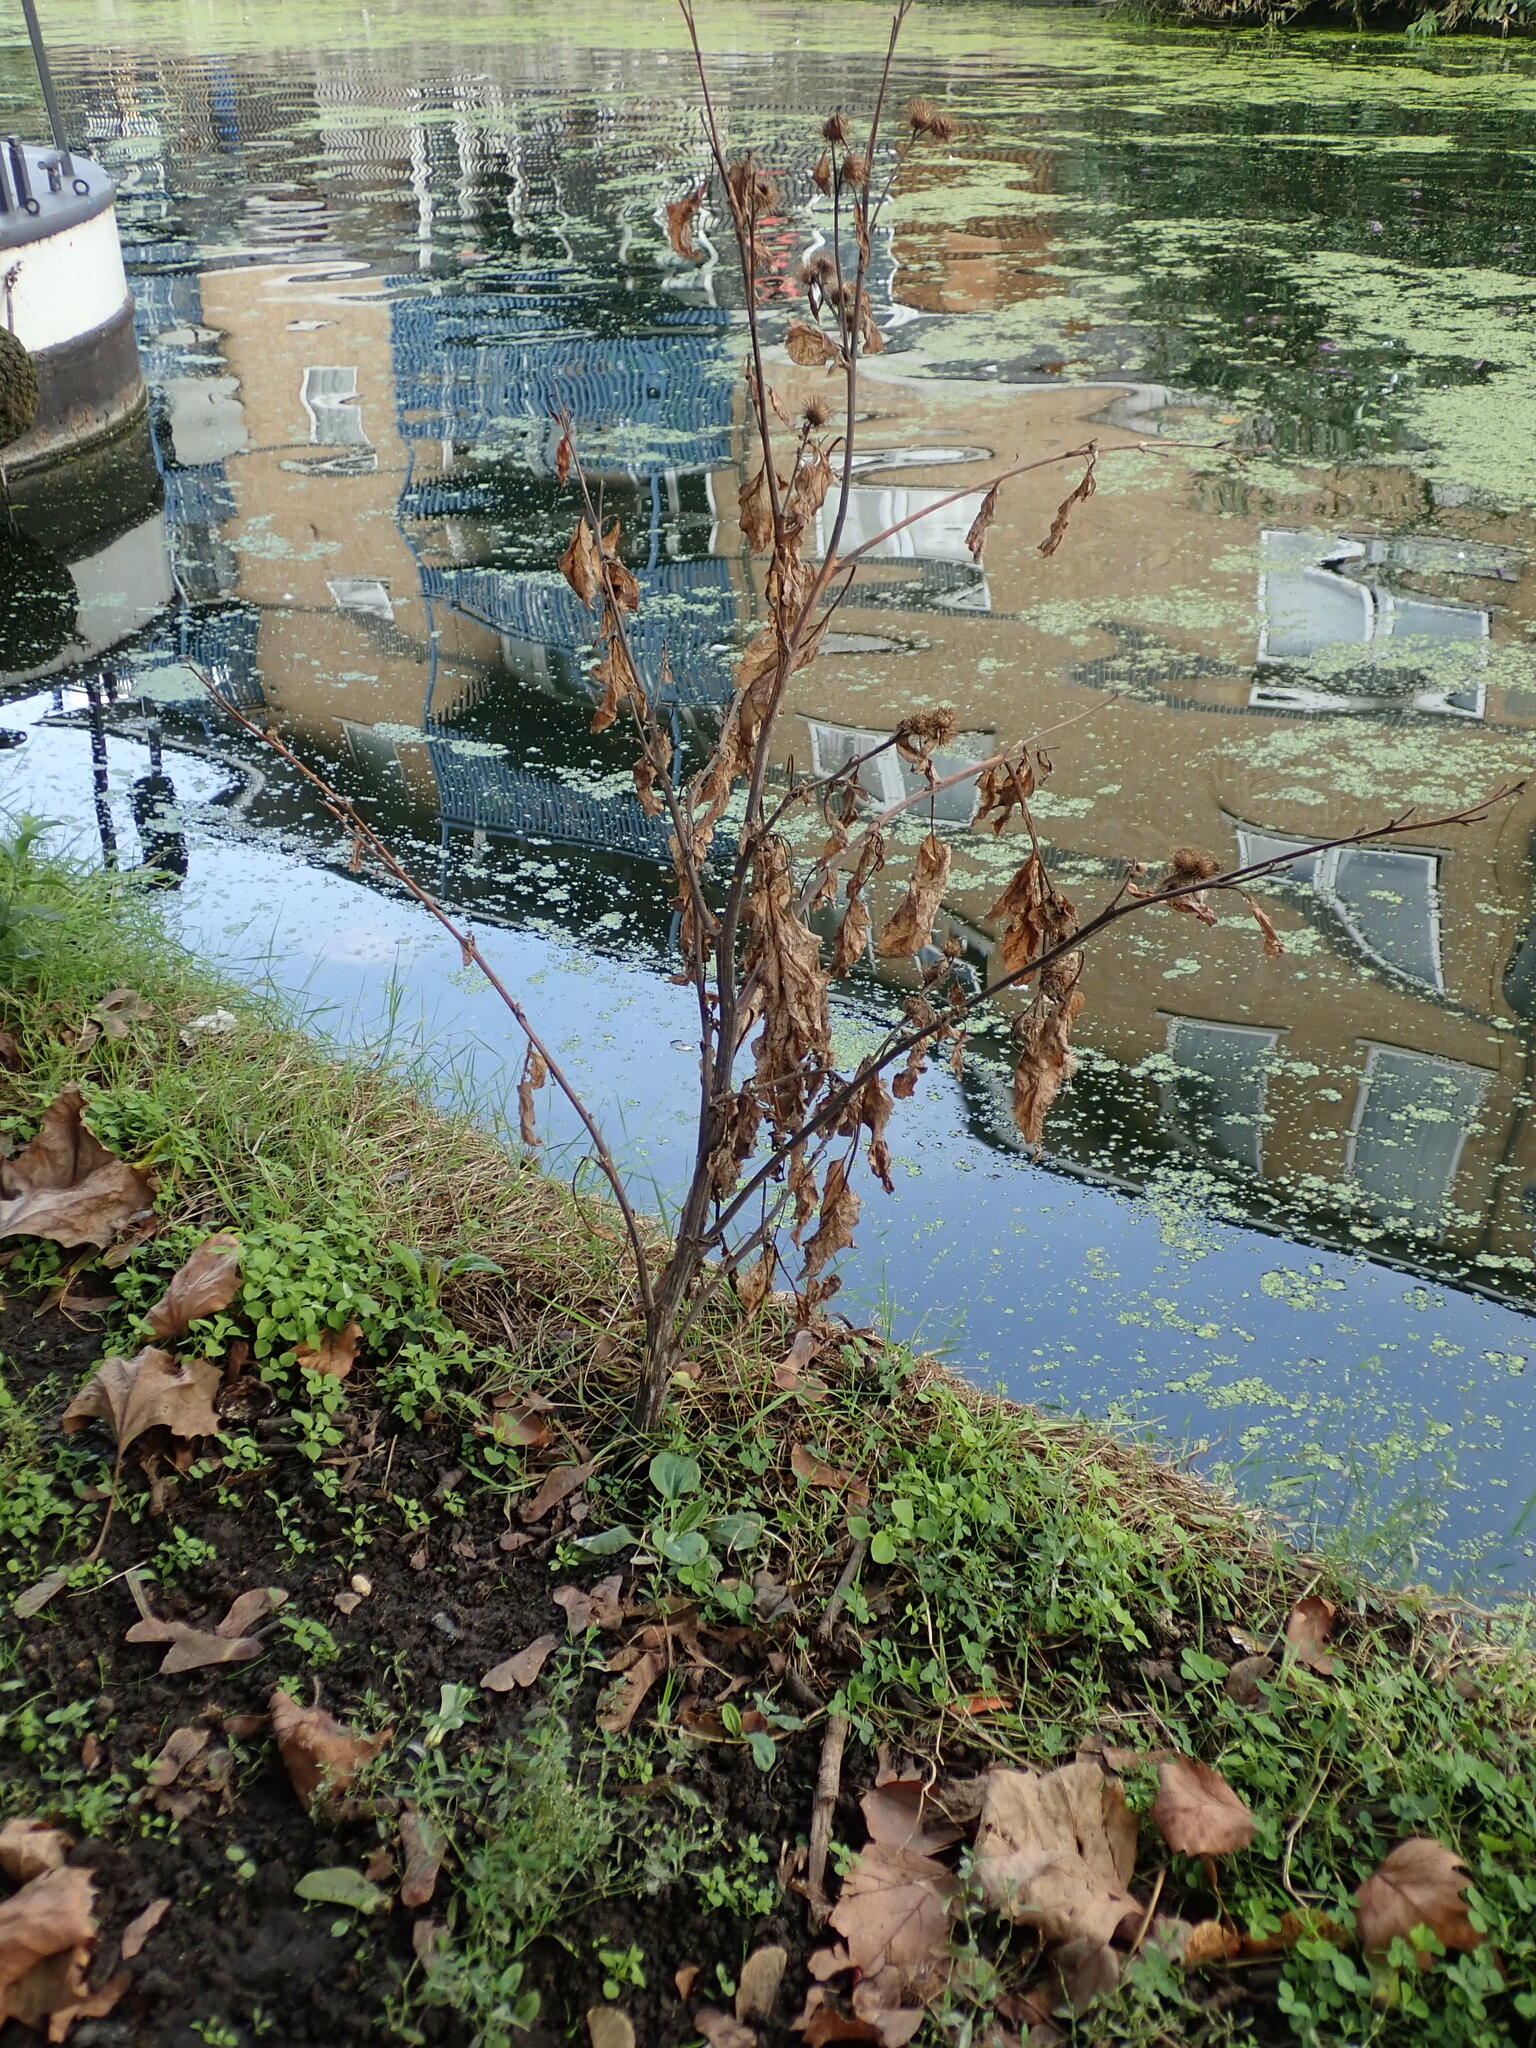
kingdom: Plantae
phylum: Tracheophyta
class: Magnoliopsida
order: Asterales
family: Asteraceae
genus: Arctium
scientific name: Arctium minus
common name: Lesser burdock
